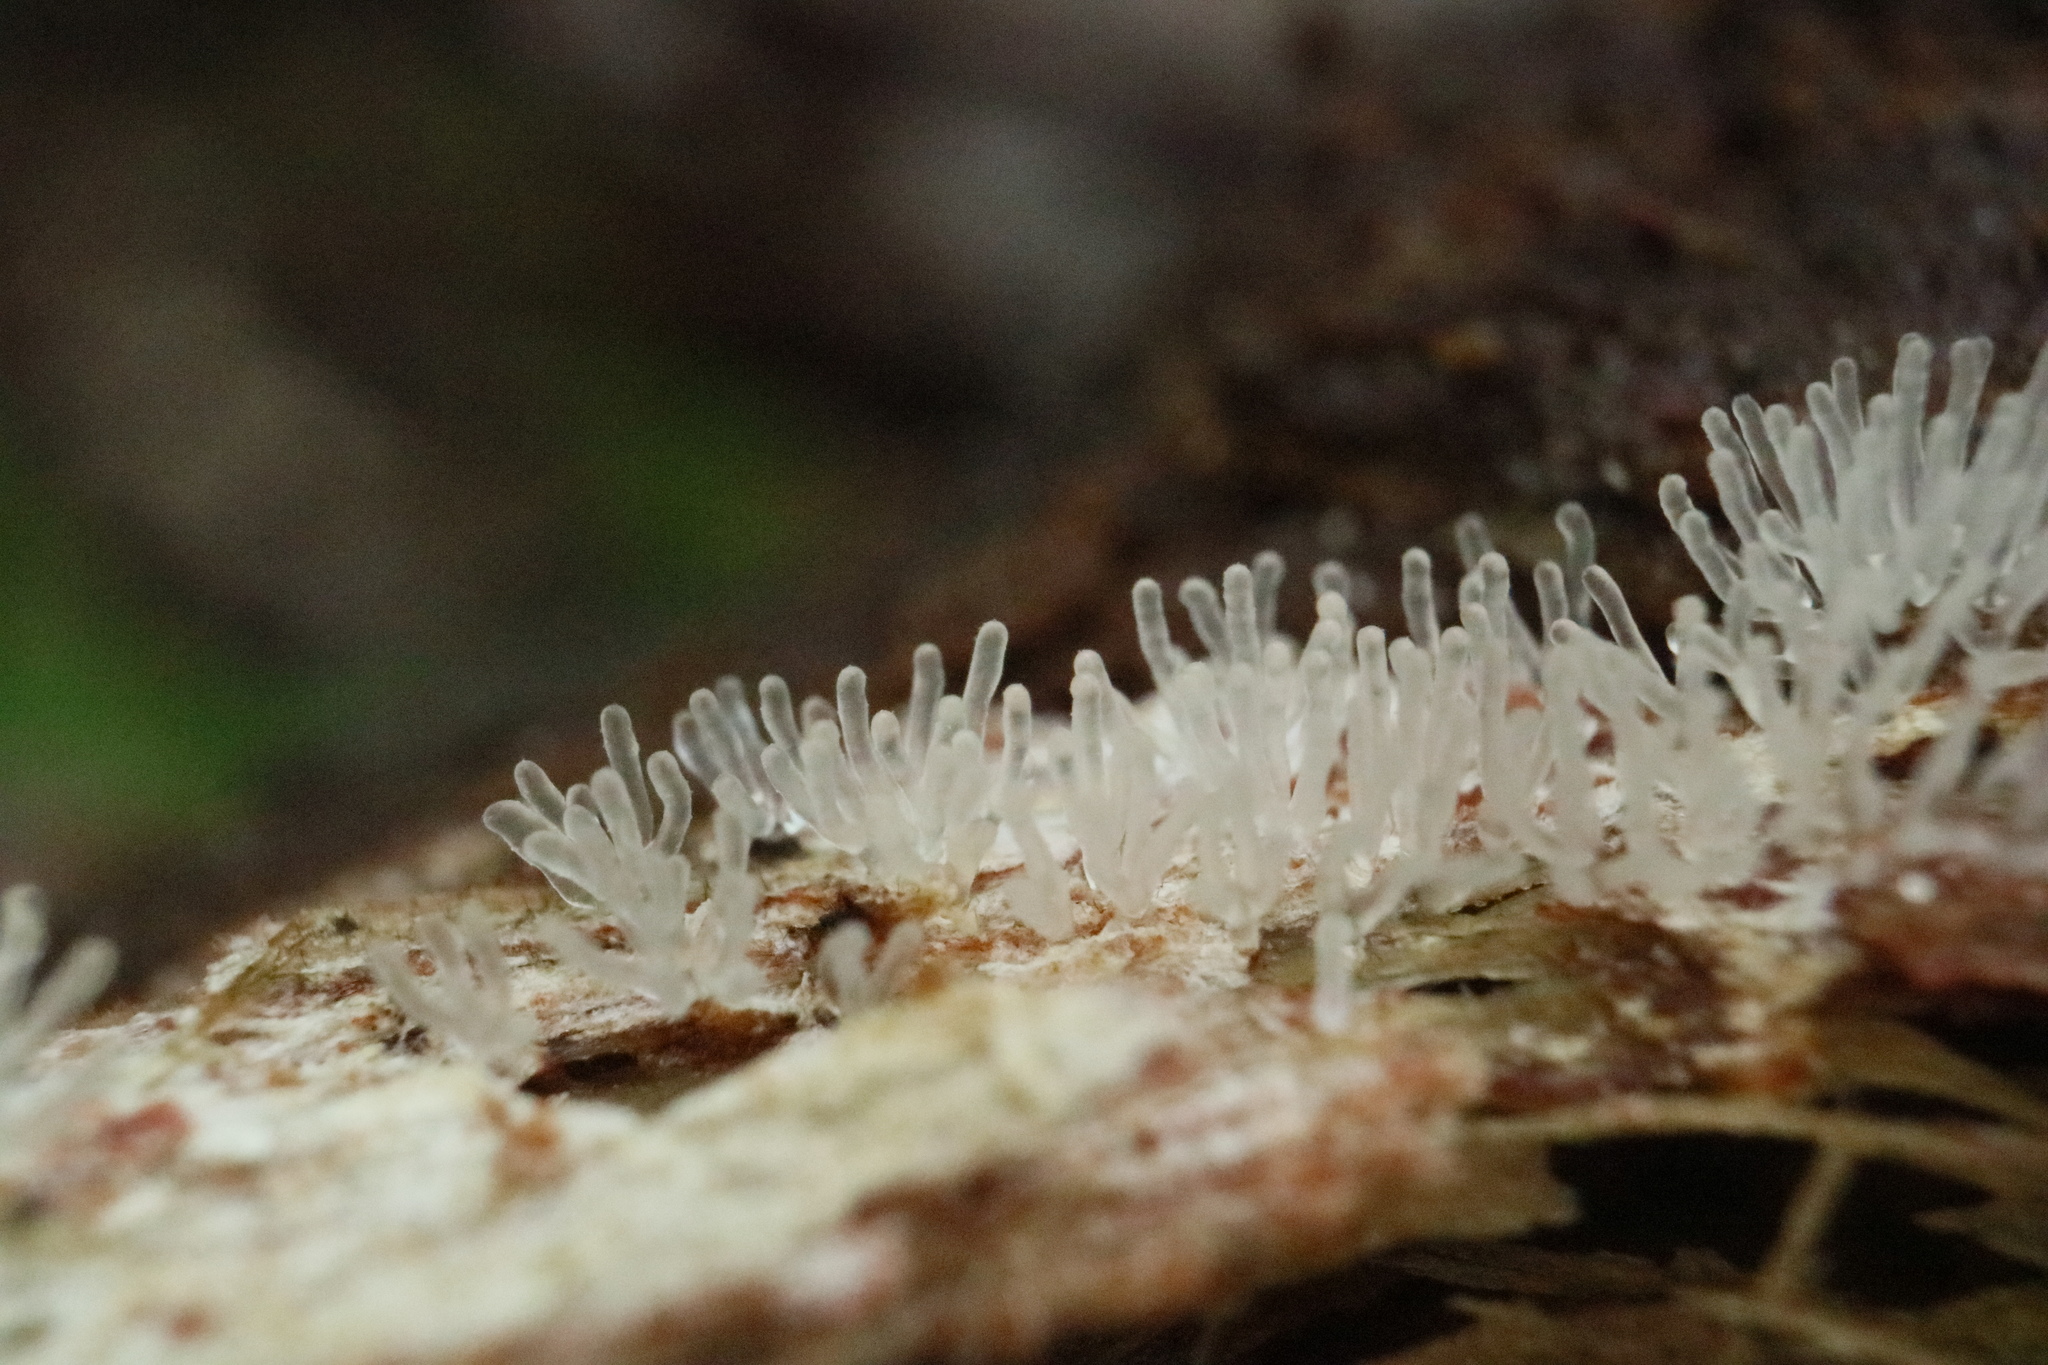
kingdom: Protozoa
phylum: Mycetozoa
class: Protosteliomycetes
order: Ceratiomyxales
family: Ceratiomyxaceae
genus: Ceratiomyxa
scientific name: Ceratiomyxa fruticulosa
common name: Honeycomb coral slime mold
